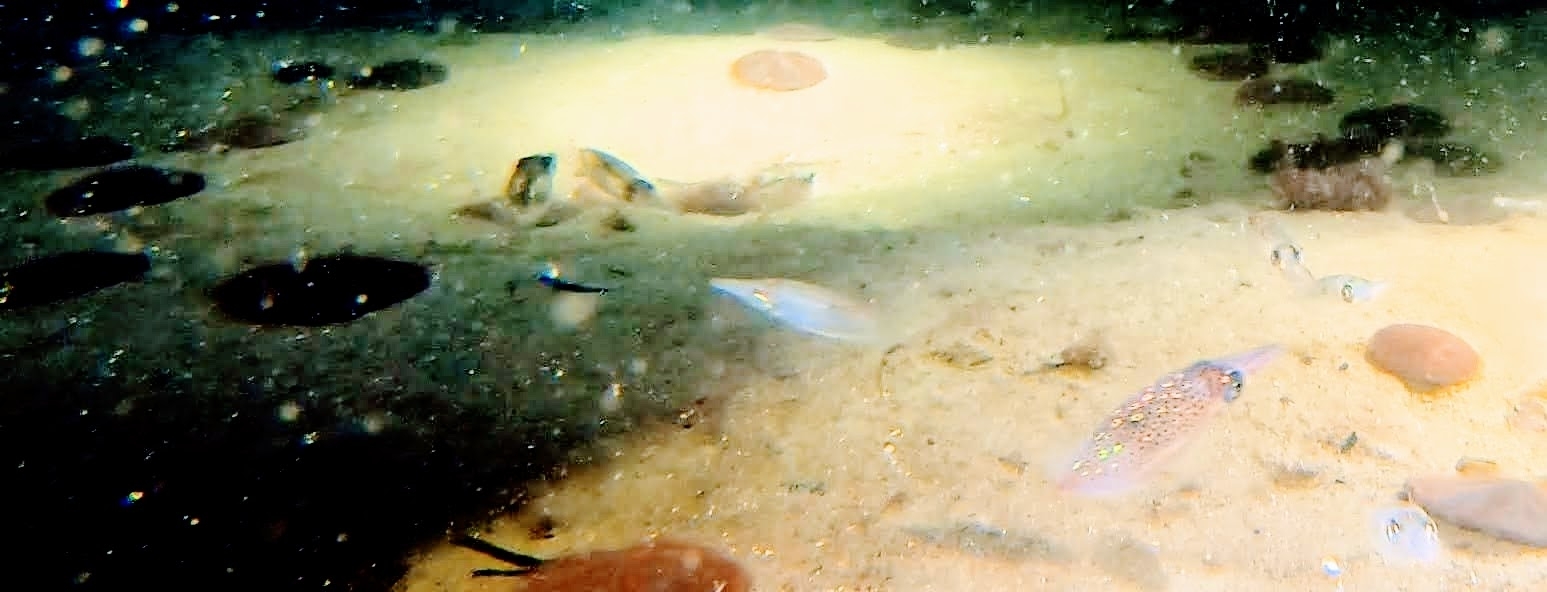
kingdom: Animalia
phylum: Mollusca
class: Cephalopoda
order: Myopsida
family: Loliginidae
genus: Doryteuthis
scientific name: Doryteuthis pealeii
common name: Long-finned inshore squid
